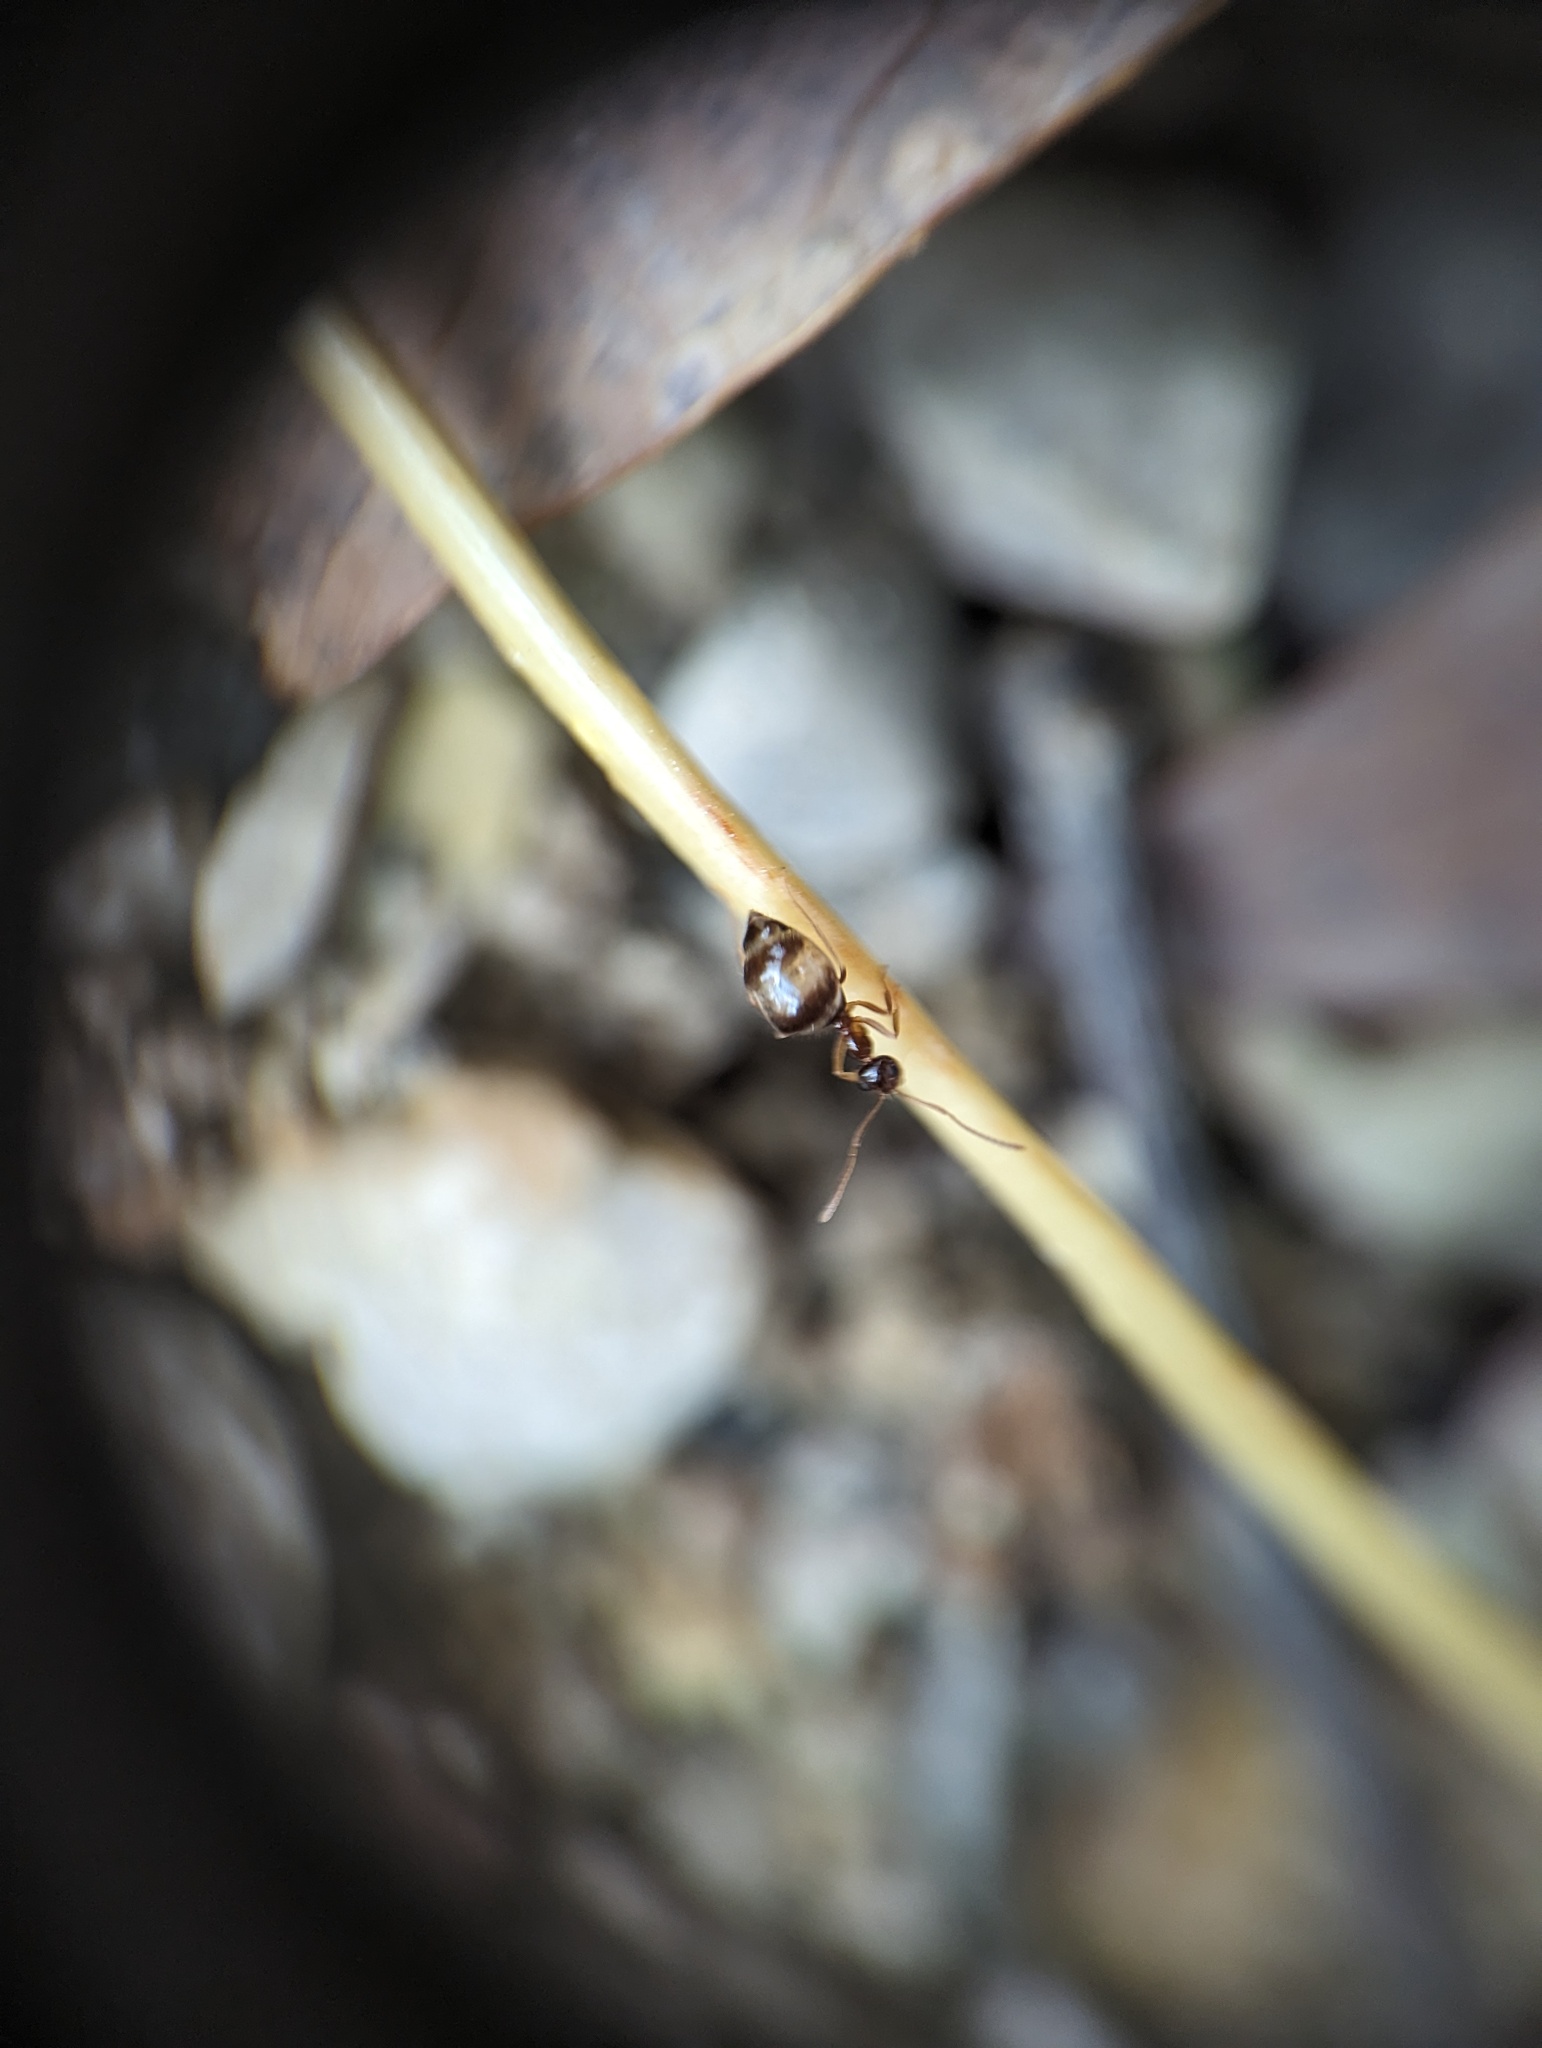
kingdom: Animalia
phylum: Arthropoda
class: Insecta
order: Hymenoptera
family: Formicidae
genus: Prenolepis
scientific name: Prenolepis imparis
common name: Small honey ant
